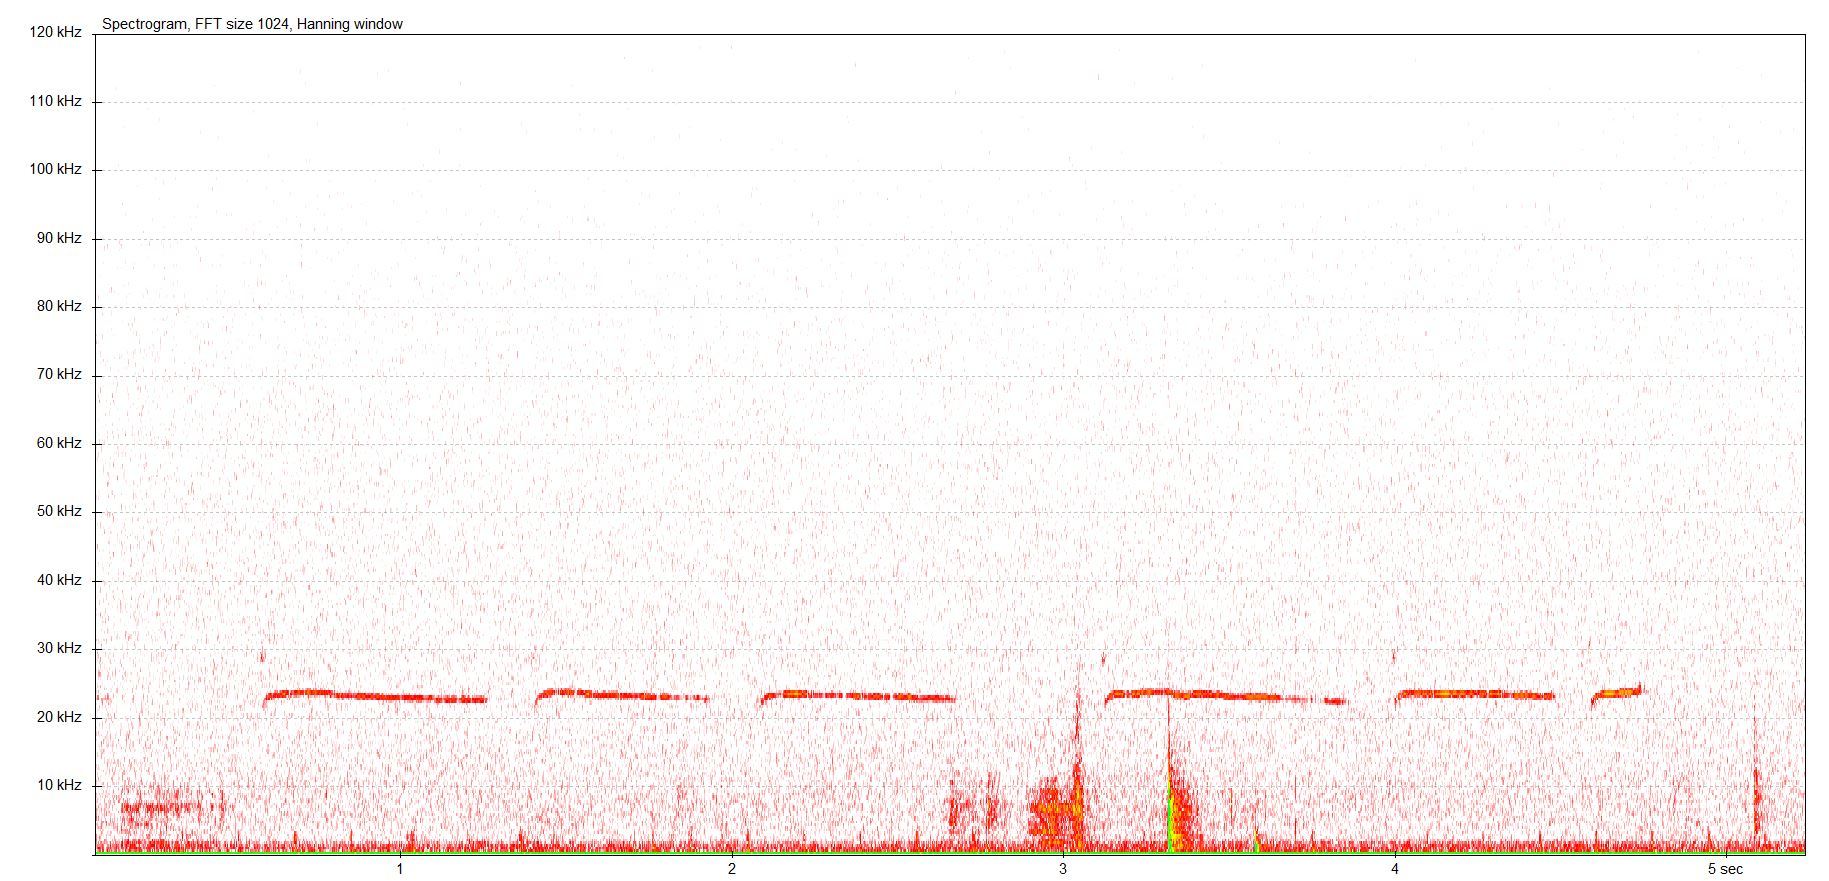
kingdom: Animalia
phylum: Chordata
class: Mammalia
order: Rodentia
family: Muridae
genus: Rattus
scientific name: Rattus norvegicus
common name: Brown rat
